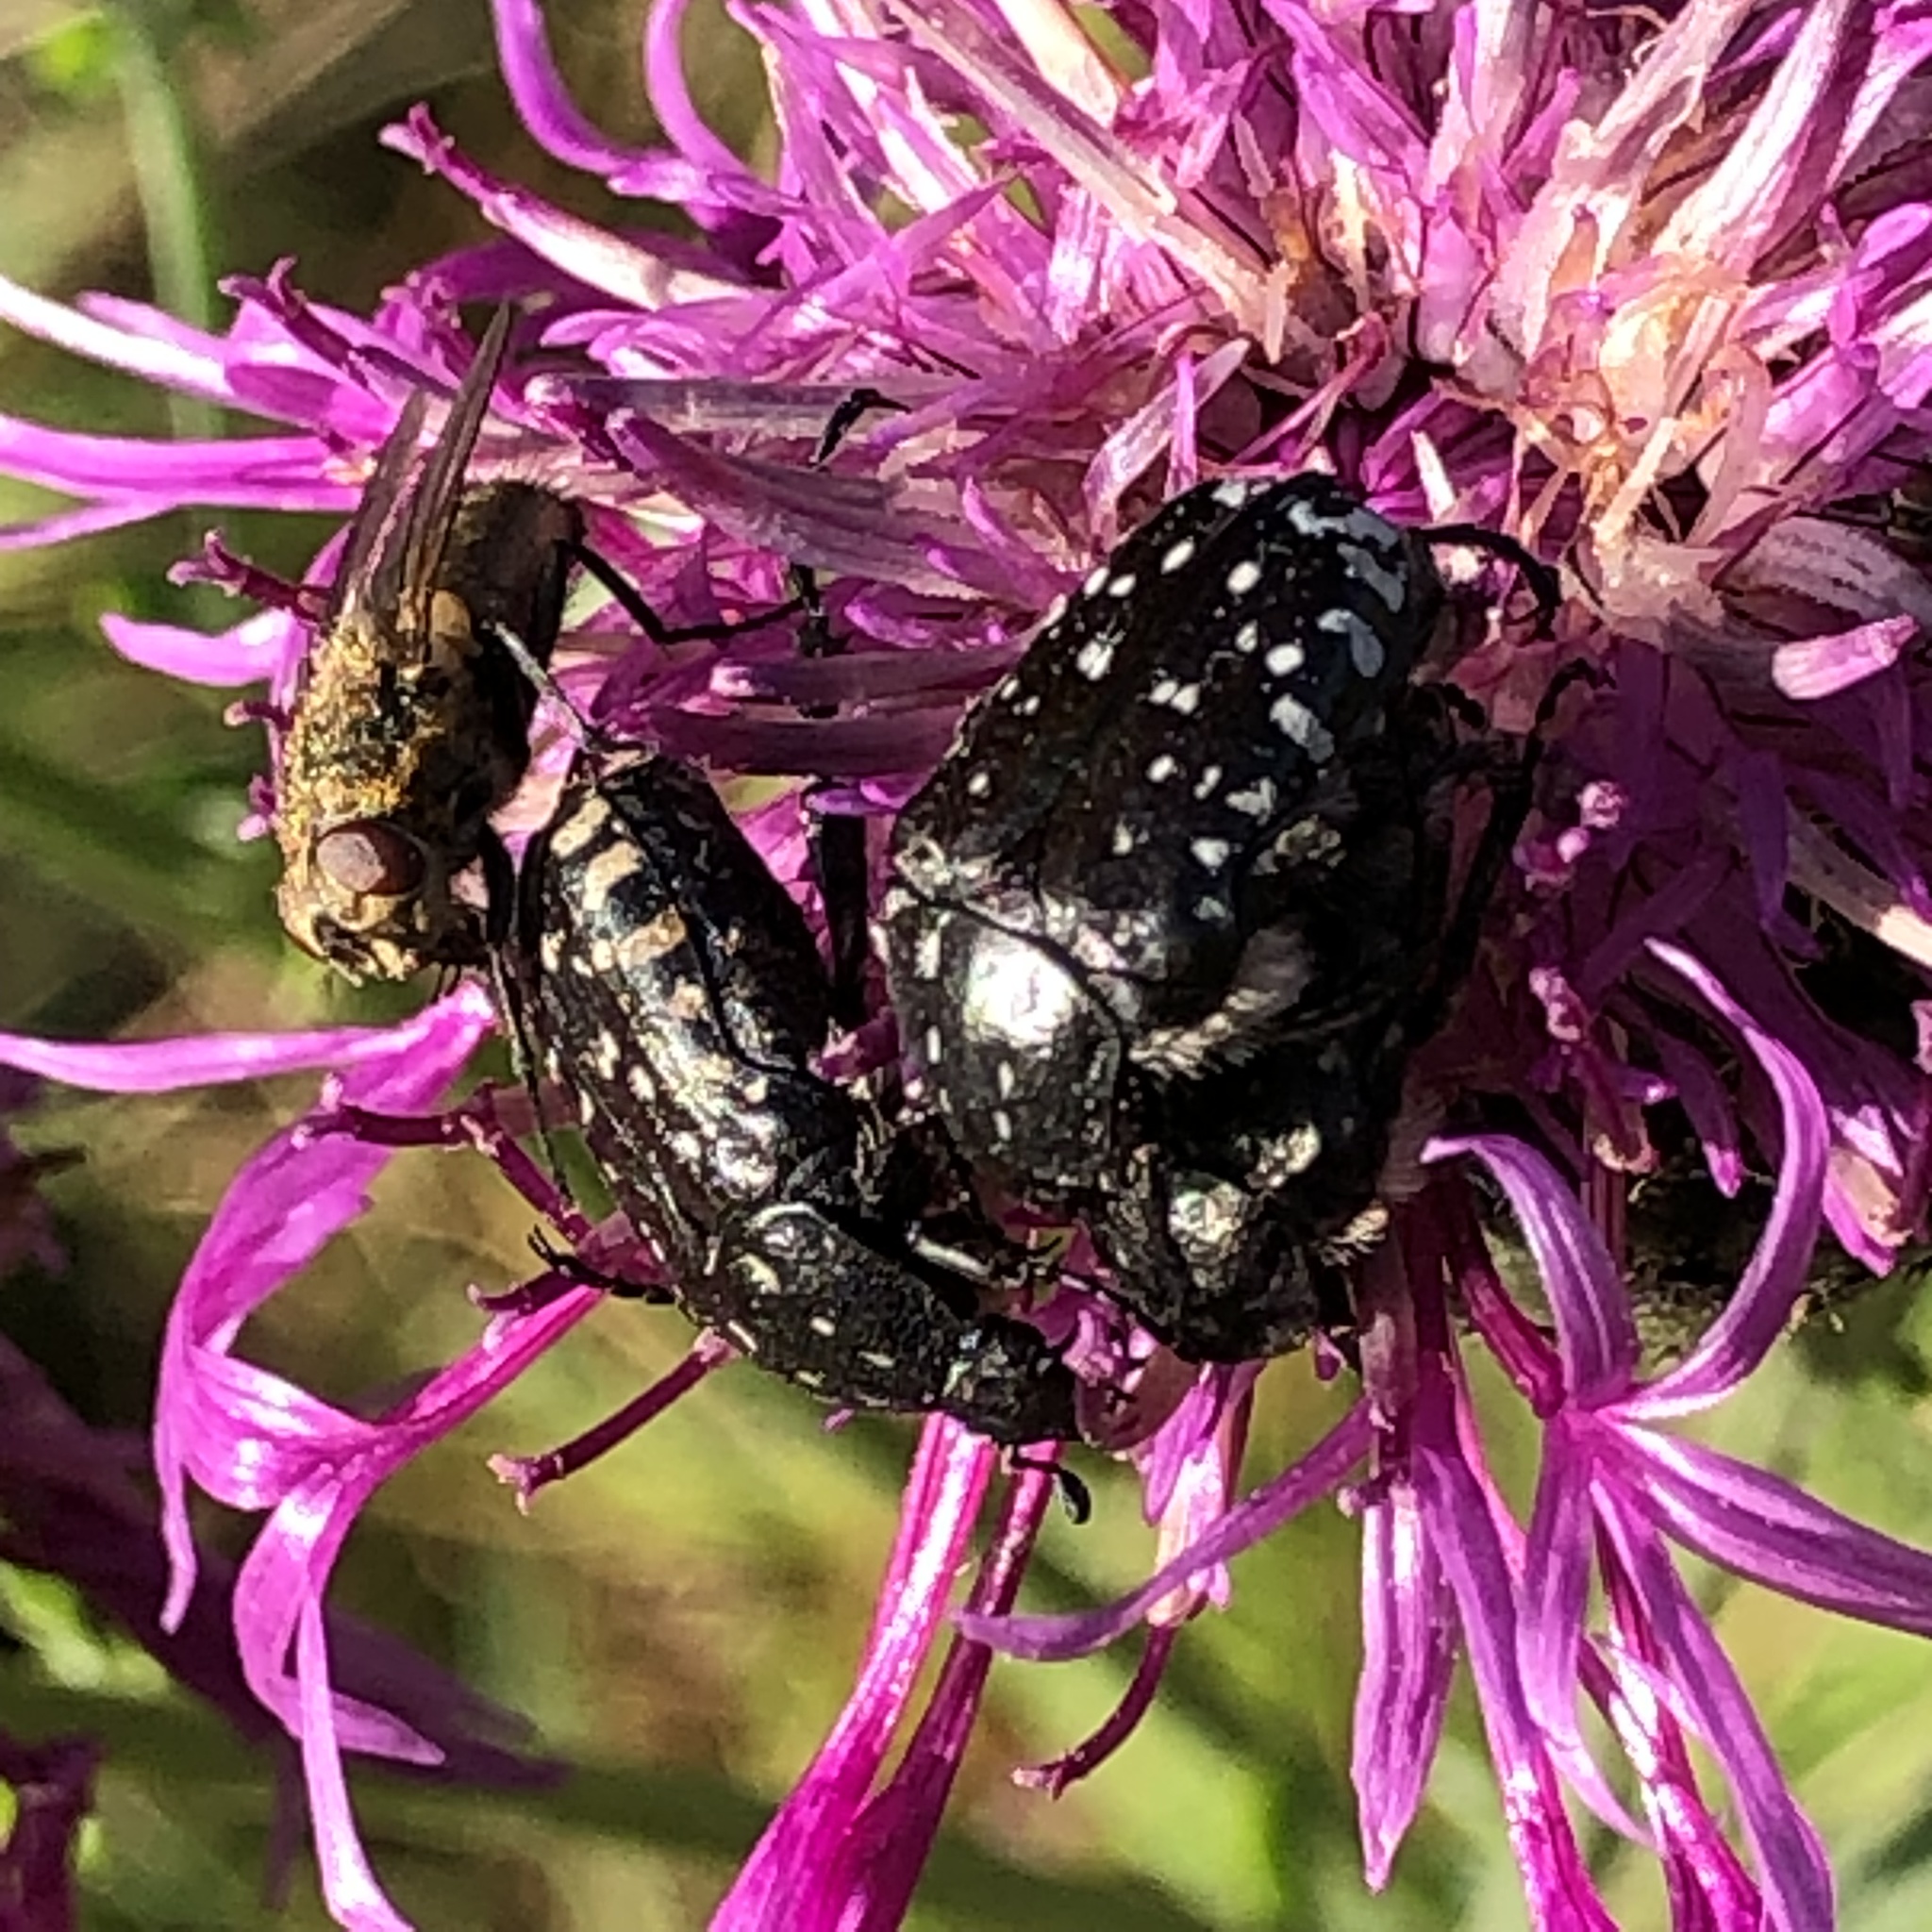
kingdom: Animalia
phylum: Arthropoda
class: Insecta
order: Coleoptera
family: Scarabaeidae
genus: Oxythyrea
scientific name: Oxythyrea funesta
